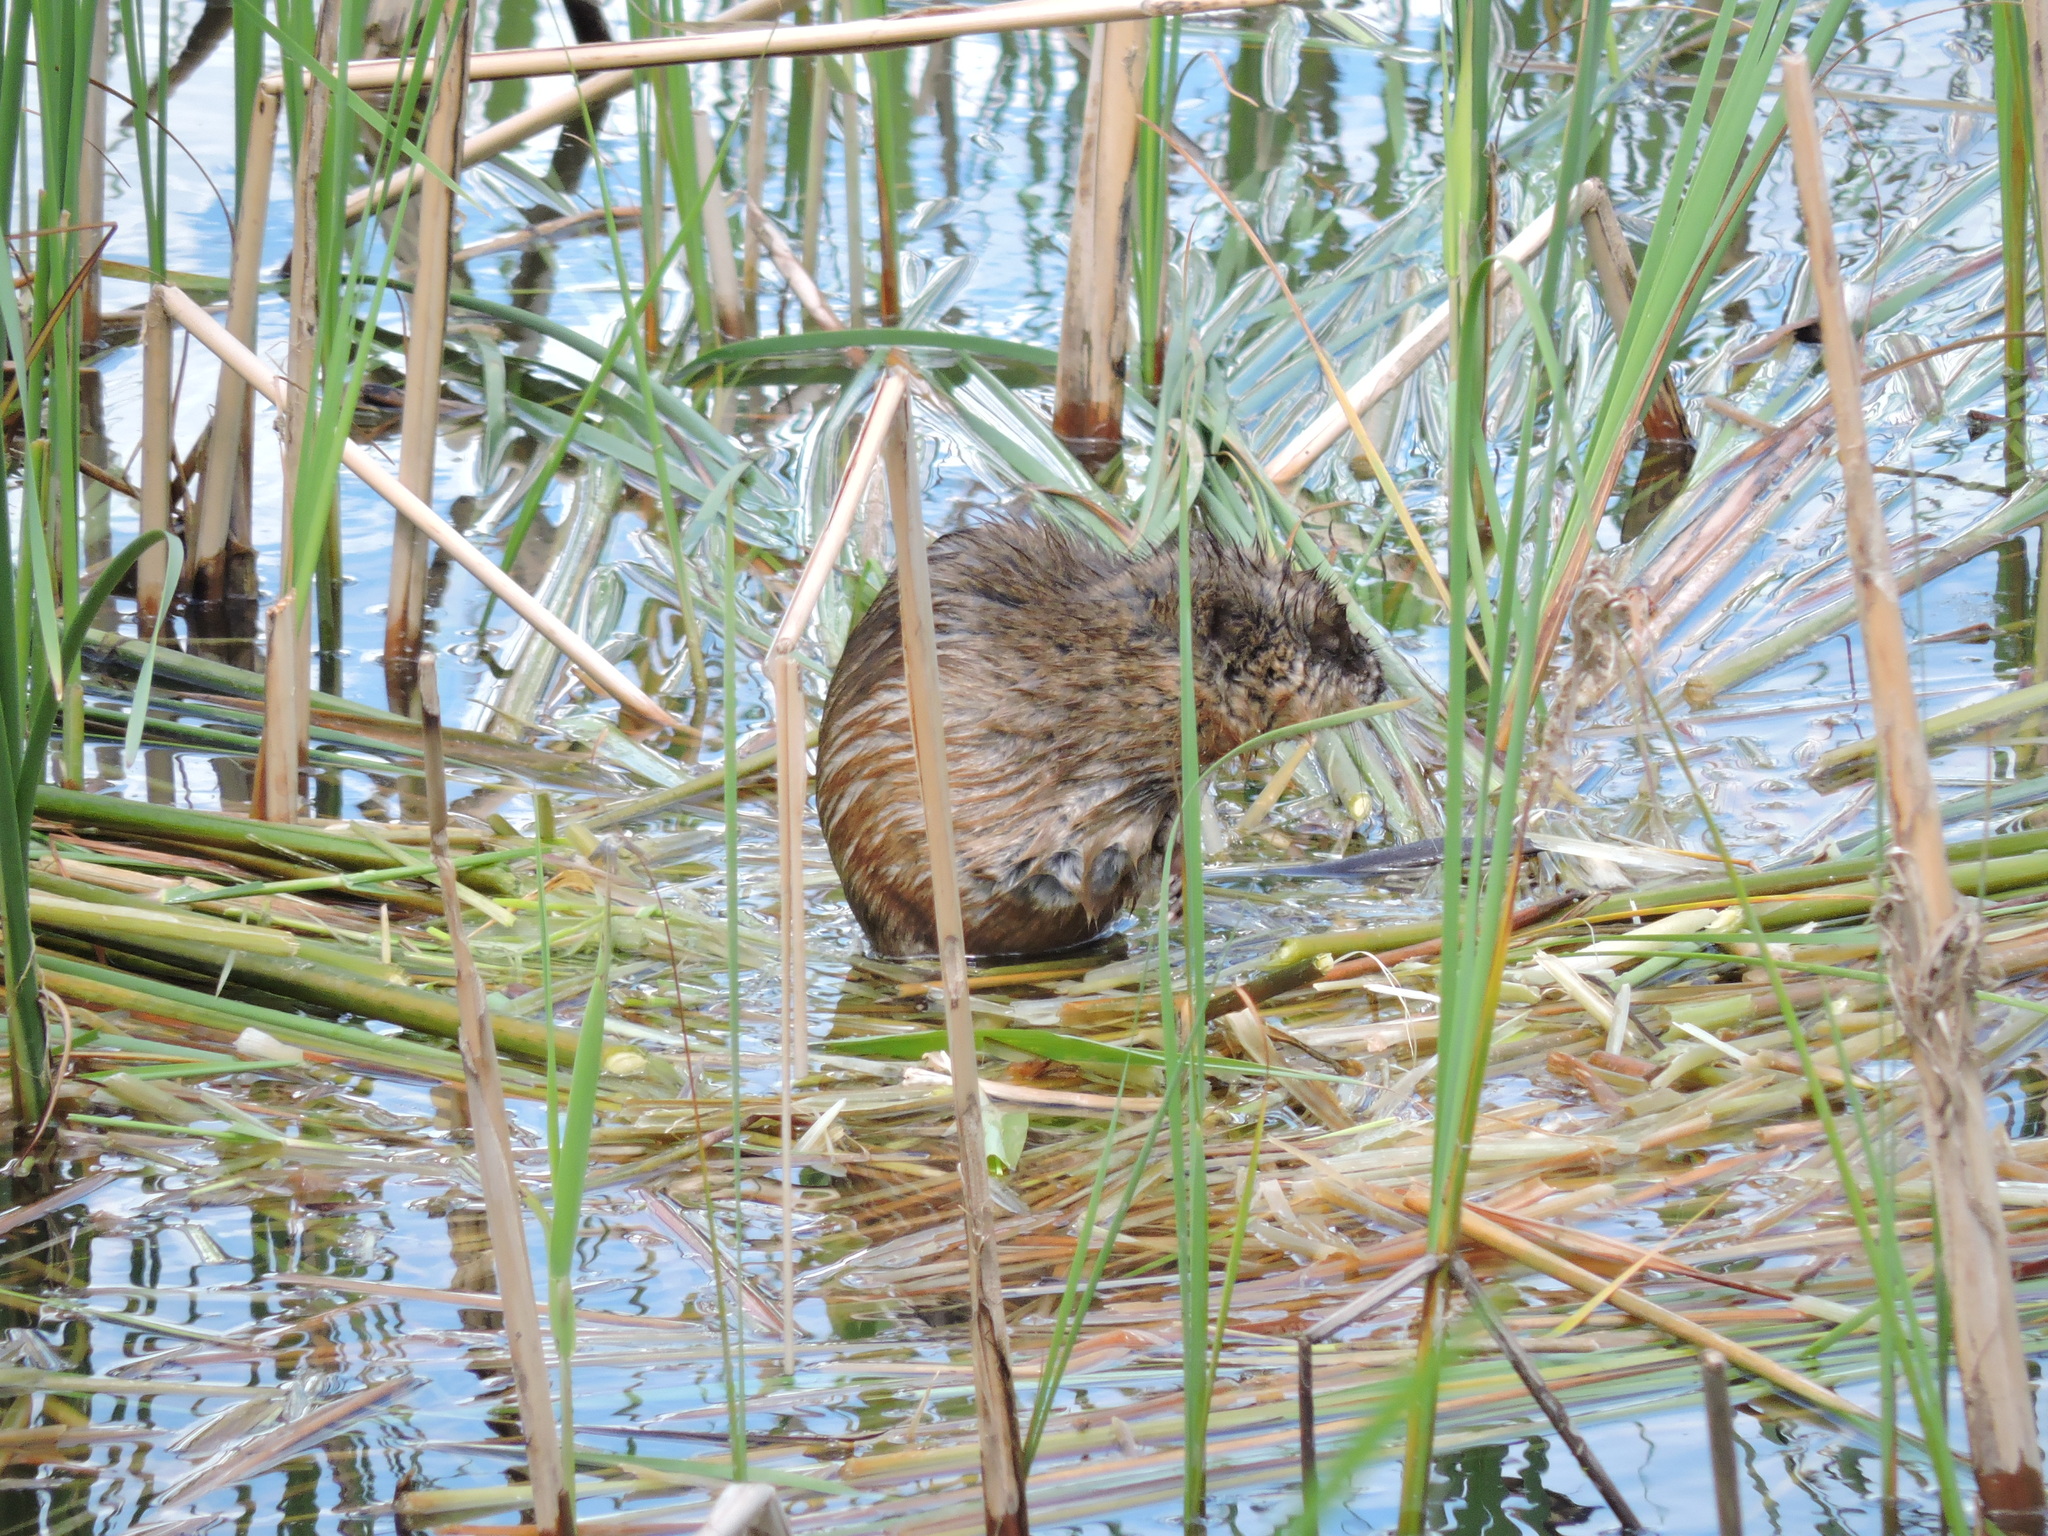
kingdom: Animalia
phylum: Chordata
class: Mammalia
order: Rodentia
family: Cricetidae
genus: Ondatra
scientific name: Ondatra zibethicus
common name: Muskrat
